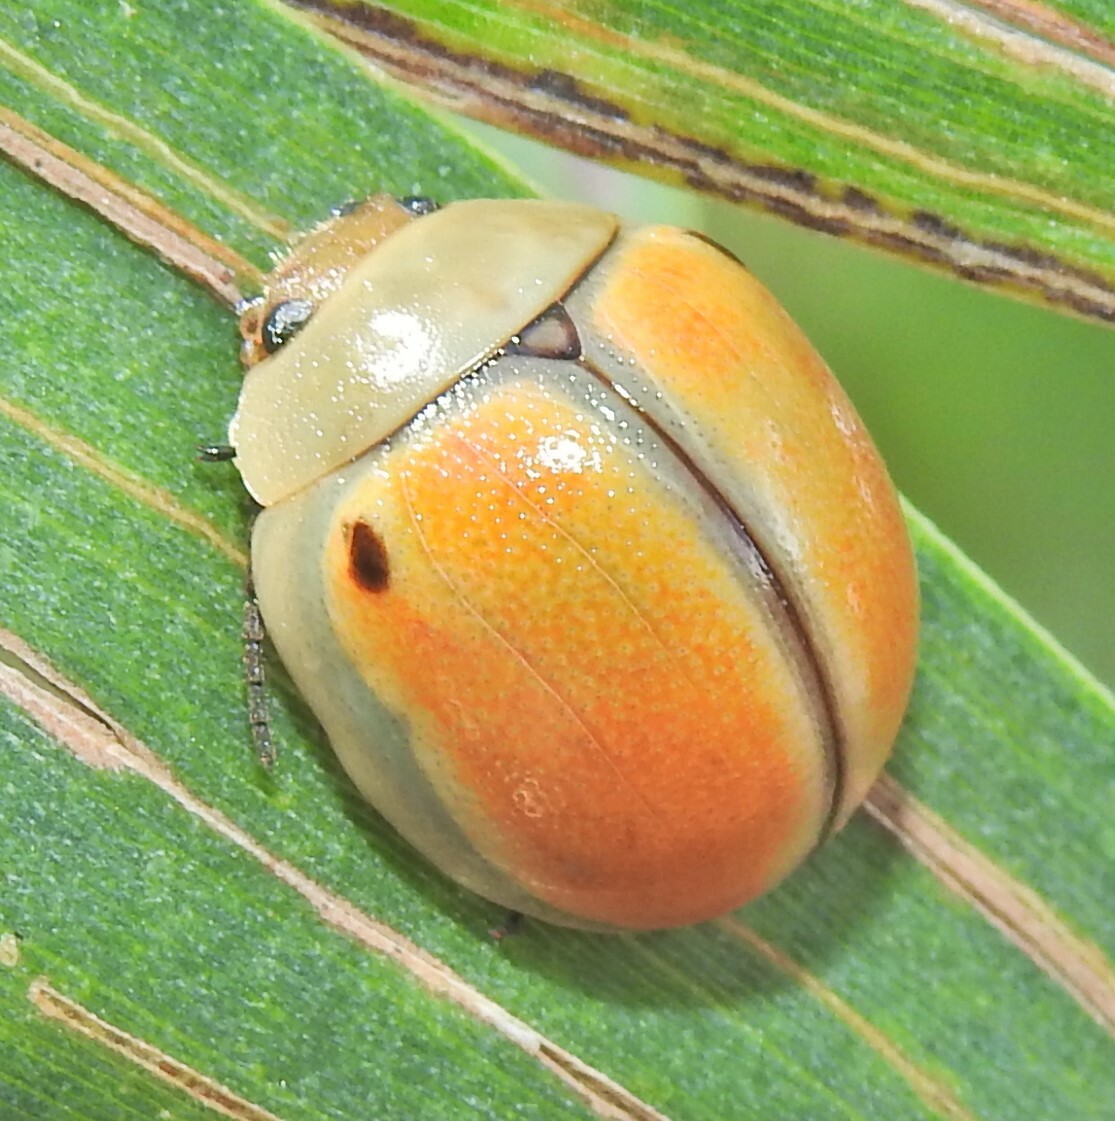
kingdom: Animalia
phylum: Arthropoda
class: Insecta
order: Coleoptera
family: Chrysomelidae
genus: Dicranosterna
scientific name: Dicranosterna
